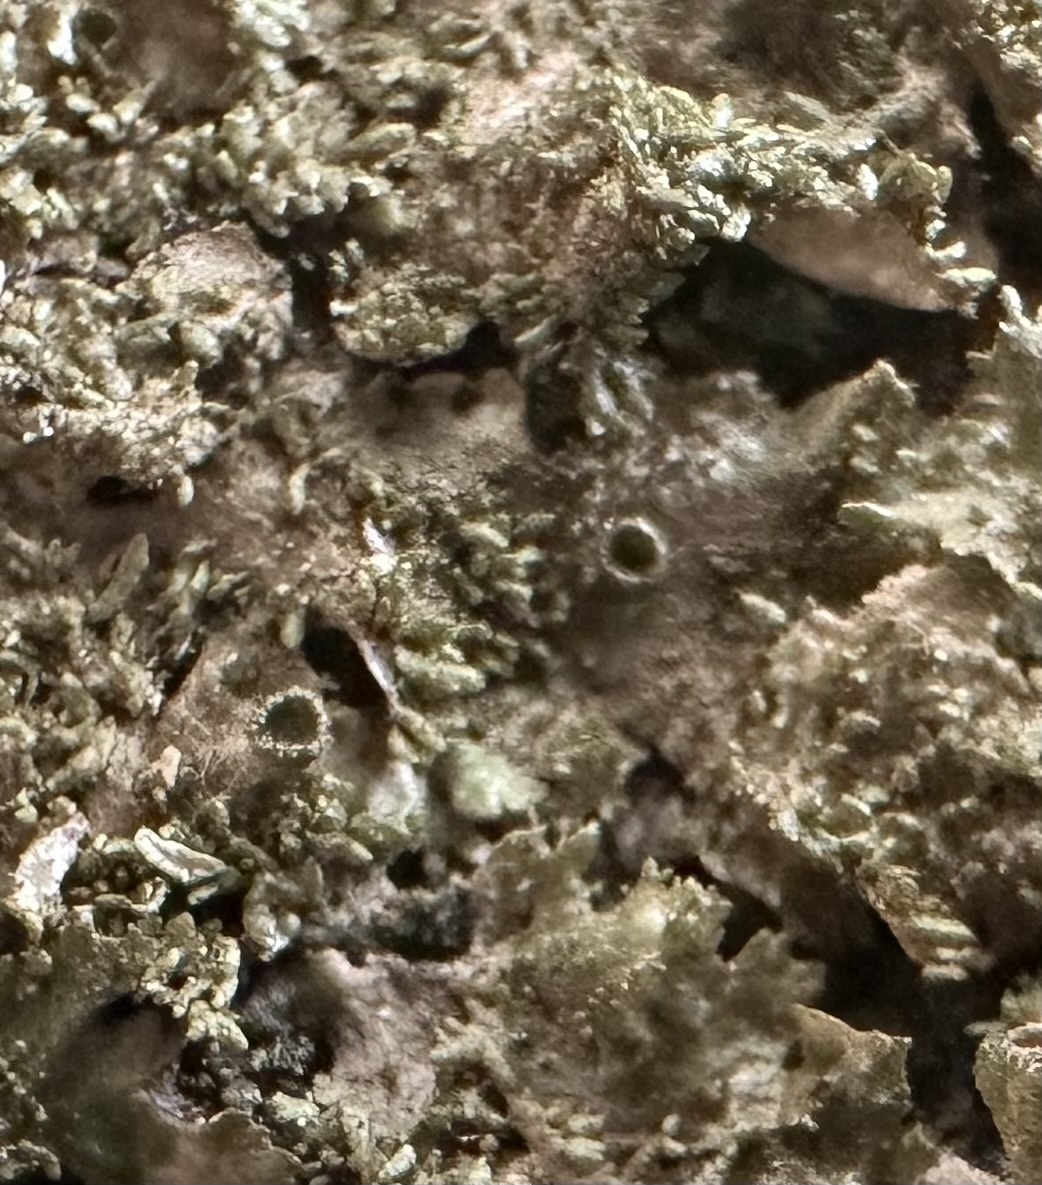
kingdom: Fungi
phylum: Ascomycota
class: Lecanoromycetes
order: Lecanorales
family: Parmeliaceae
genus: Melanohalea
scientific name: Melanohalea exasperatula
